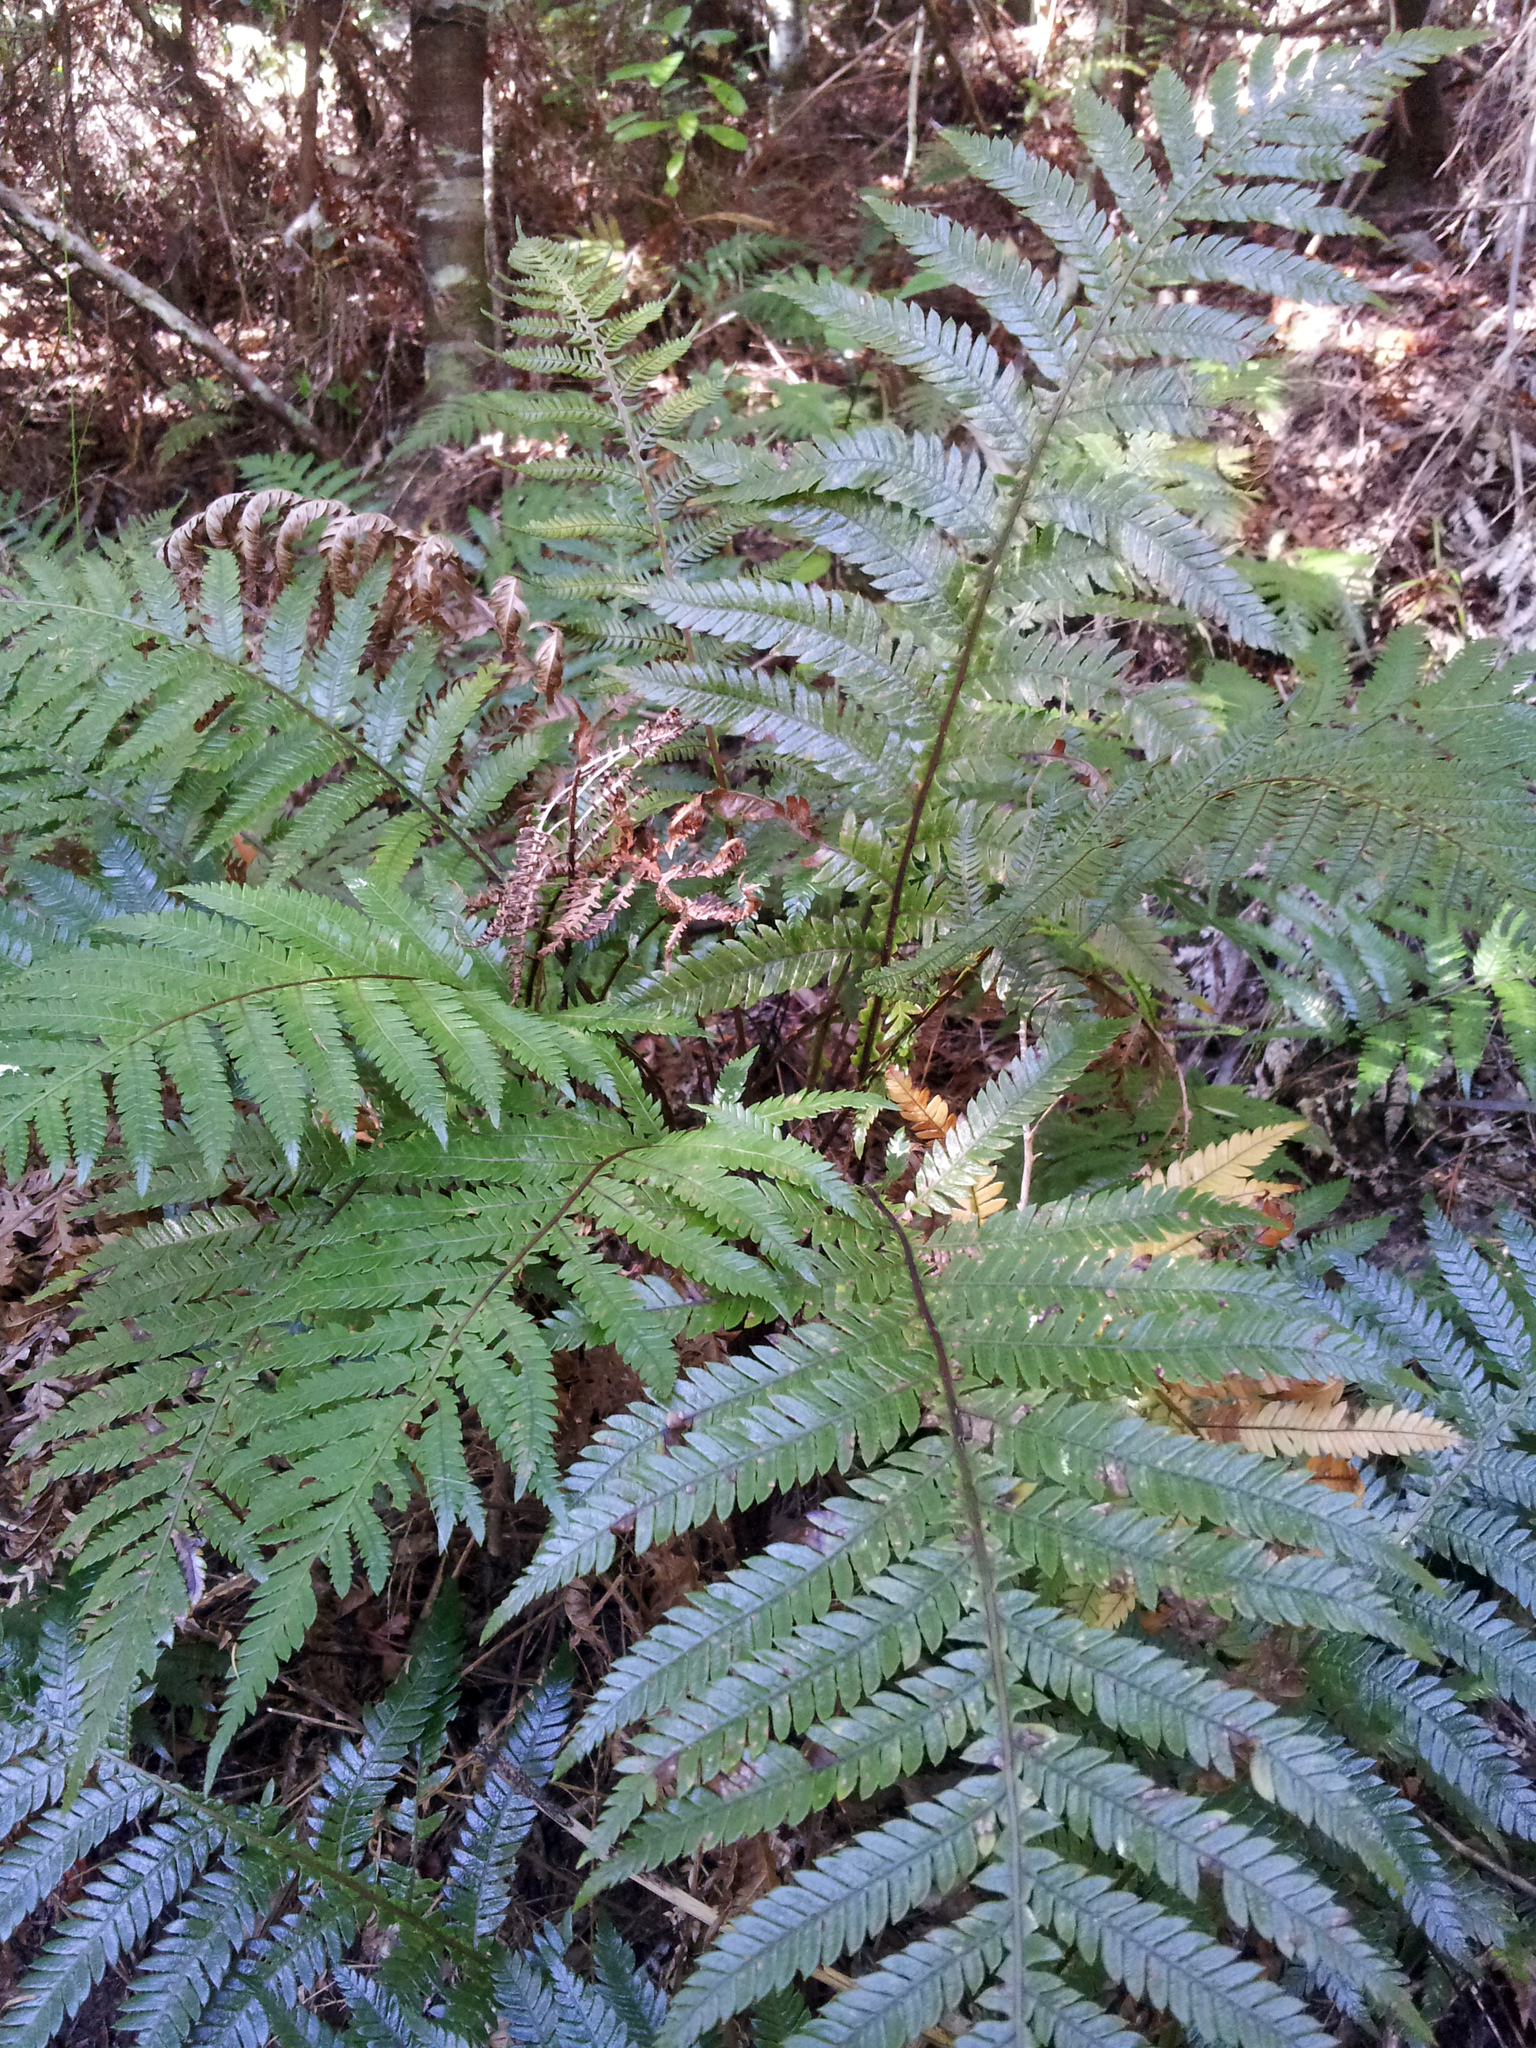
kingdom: Plantae
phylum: Tracheophyta
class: Polypodiopsida
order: Polypodiales
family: Blechnaceae
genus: Diploblechnum
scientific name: Diploblechnum fraseri
